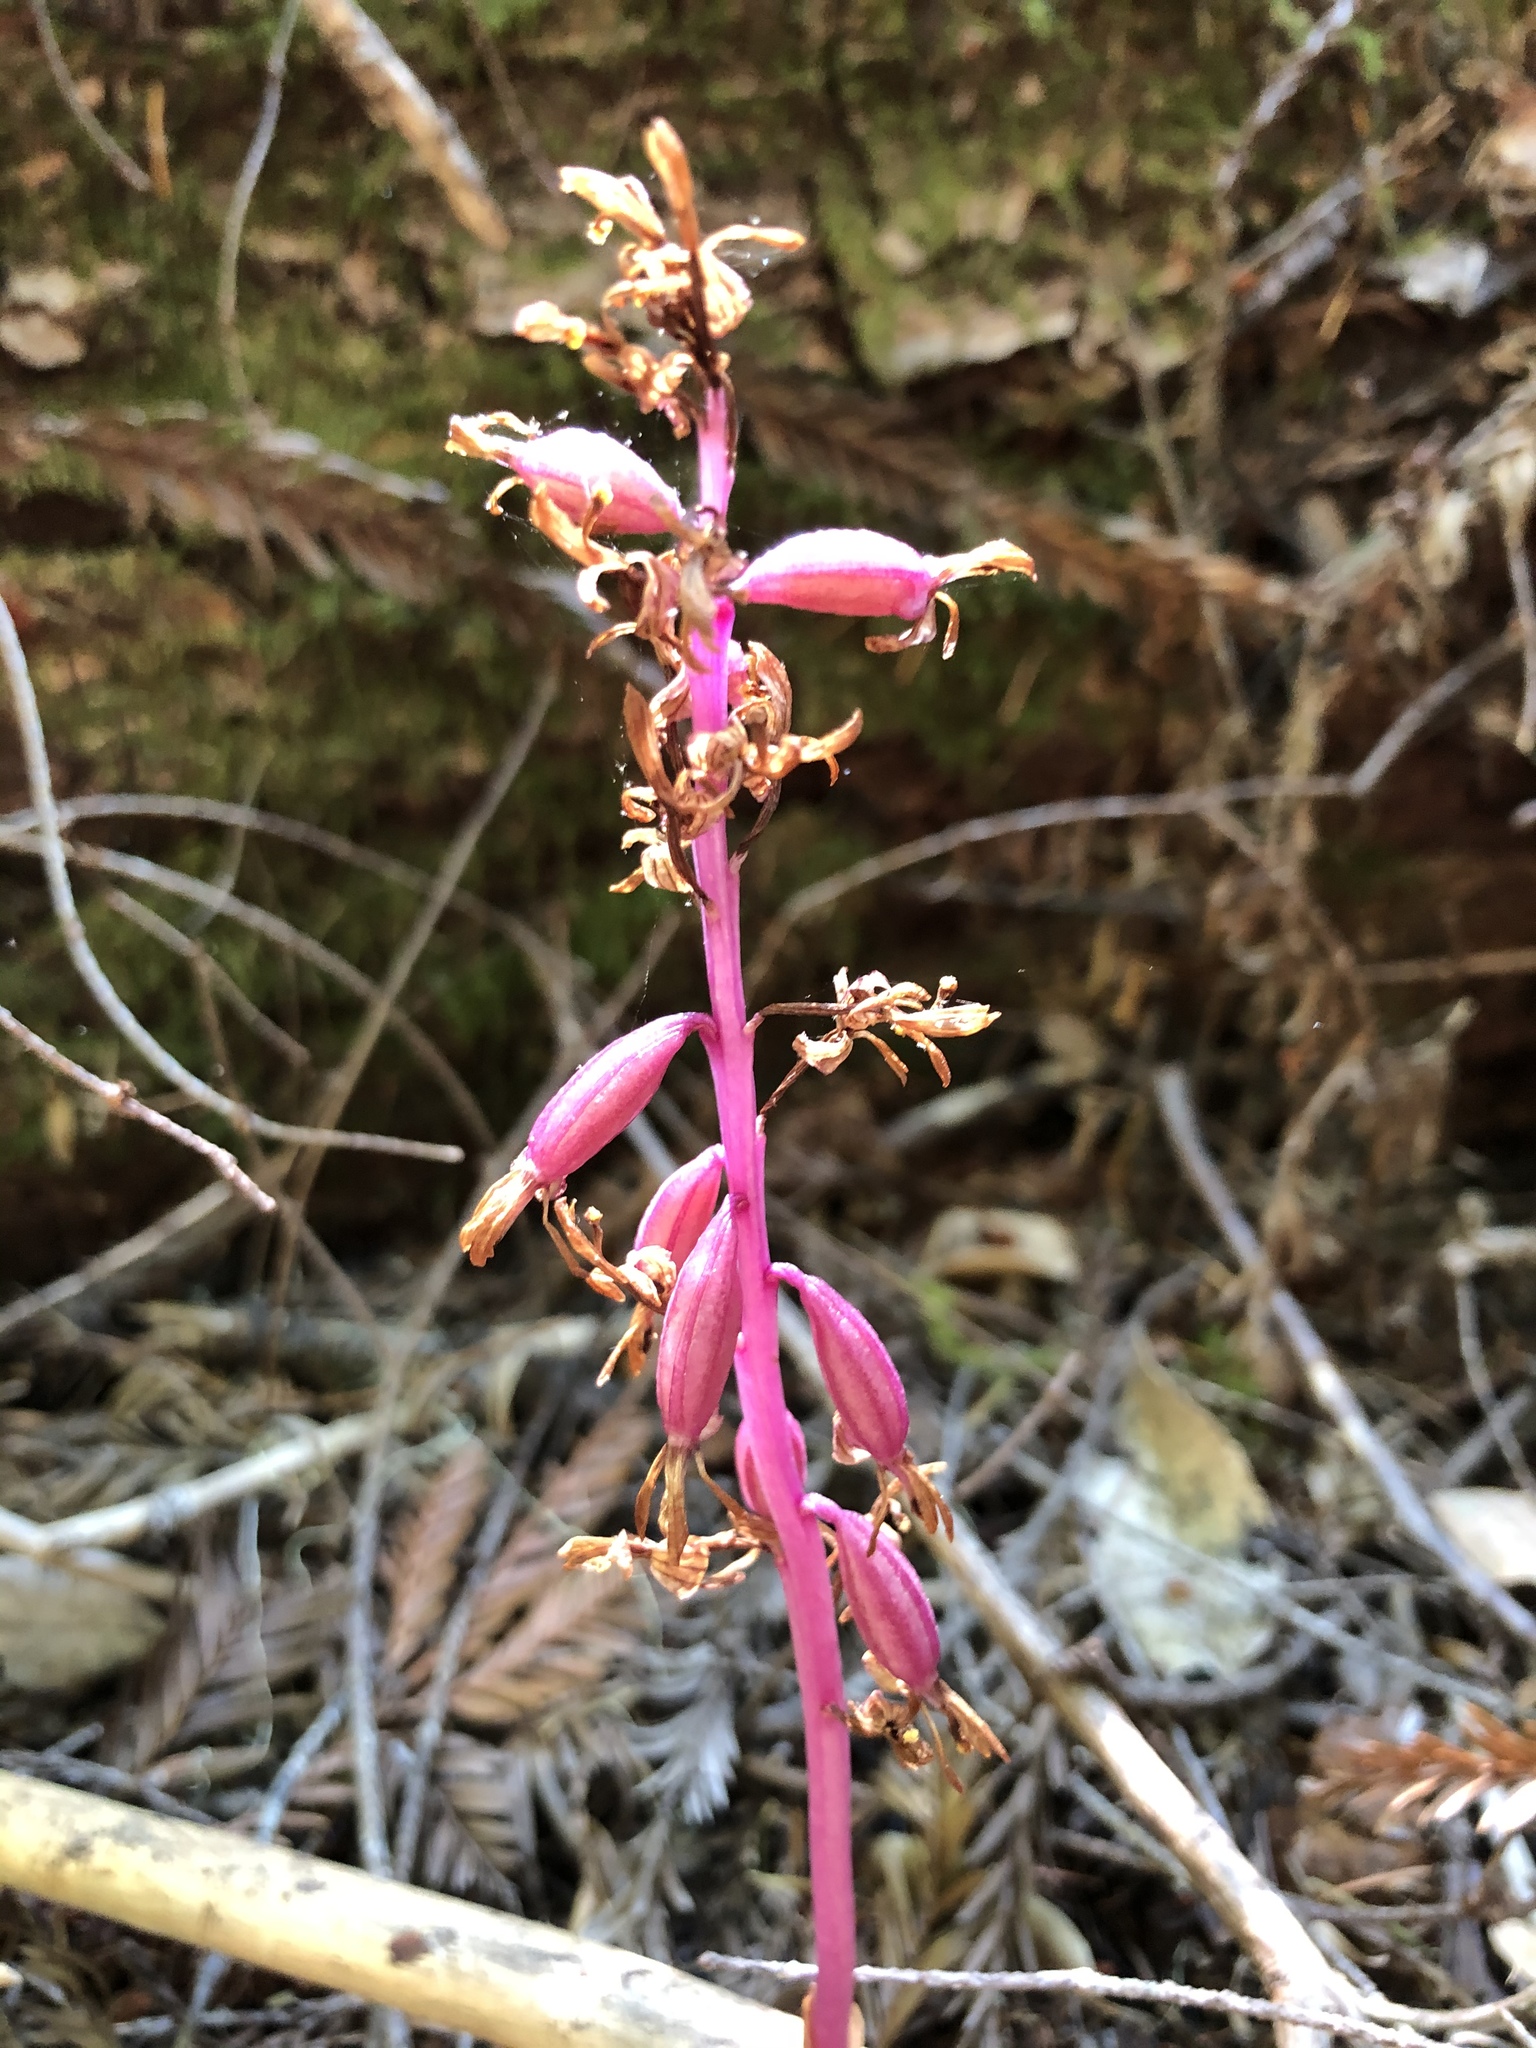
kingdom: Plantae
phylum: Tracheophyta
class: Liliopsida
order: Asparagales
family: Orchidaceae
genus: Corallorhiza
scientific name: Corallorhiza mertensiana
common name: Pacific coralroot
